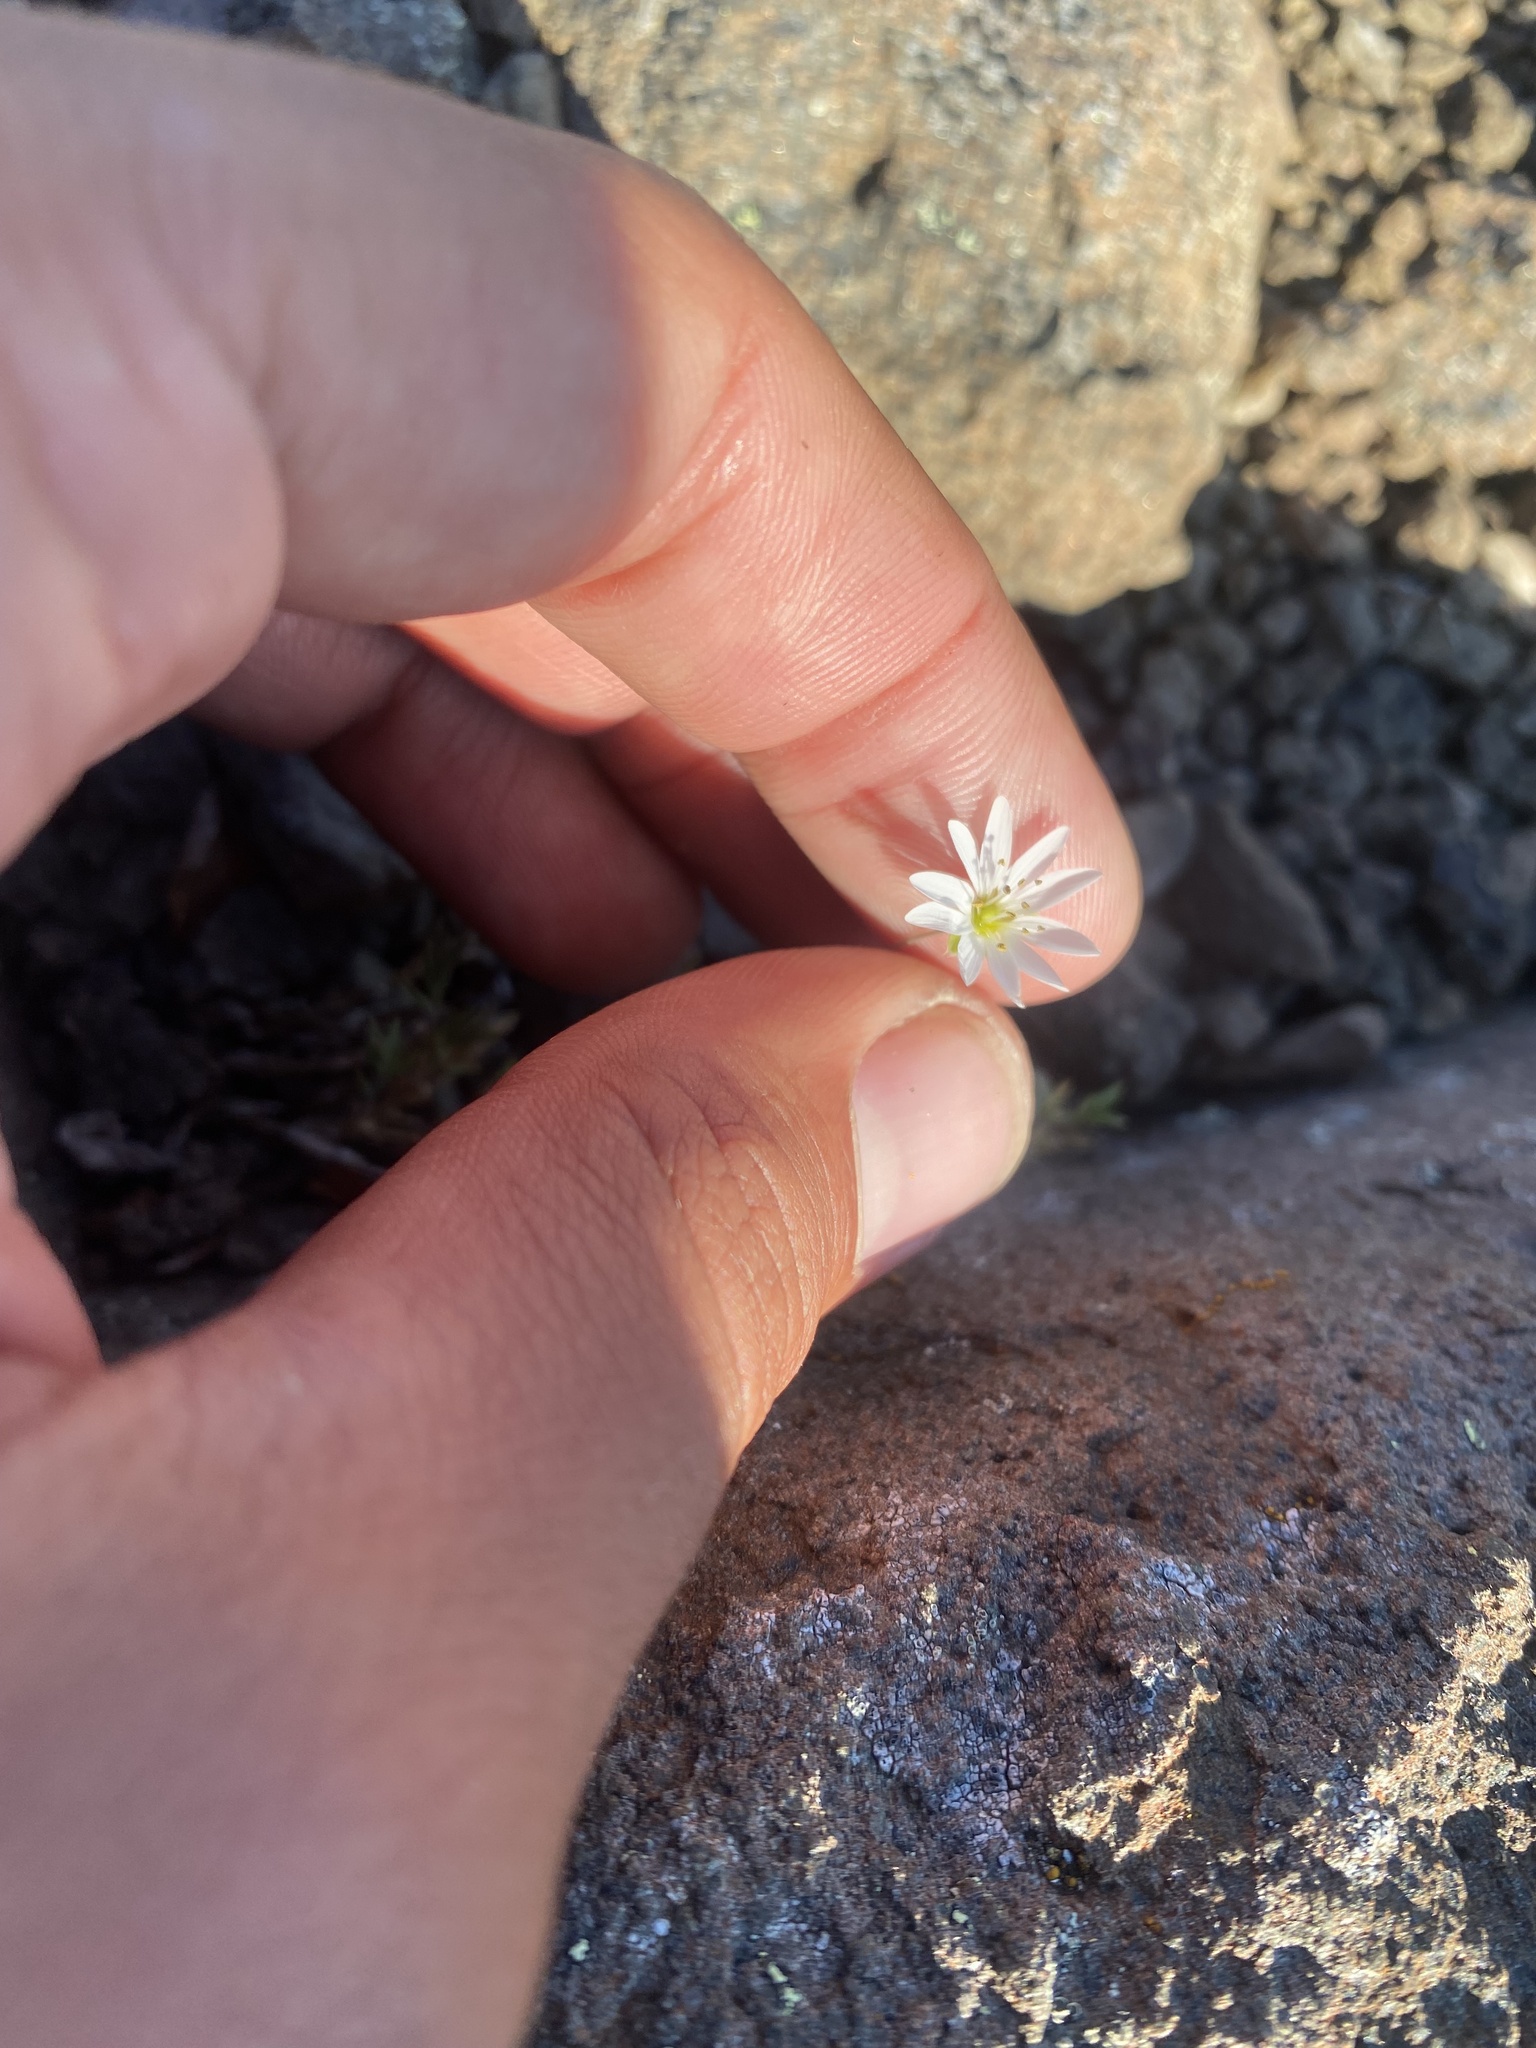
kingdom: Plantae
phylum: Tracheophyta
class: Magnoliopsida
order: Caryophyllales
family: Caryophyllaceae
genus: Stellaria
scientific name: Stellaria fischeriana
